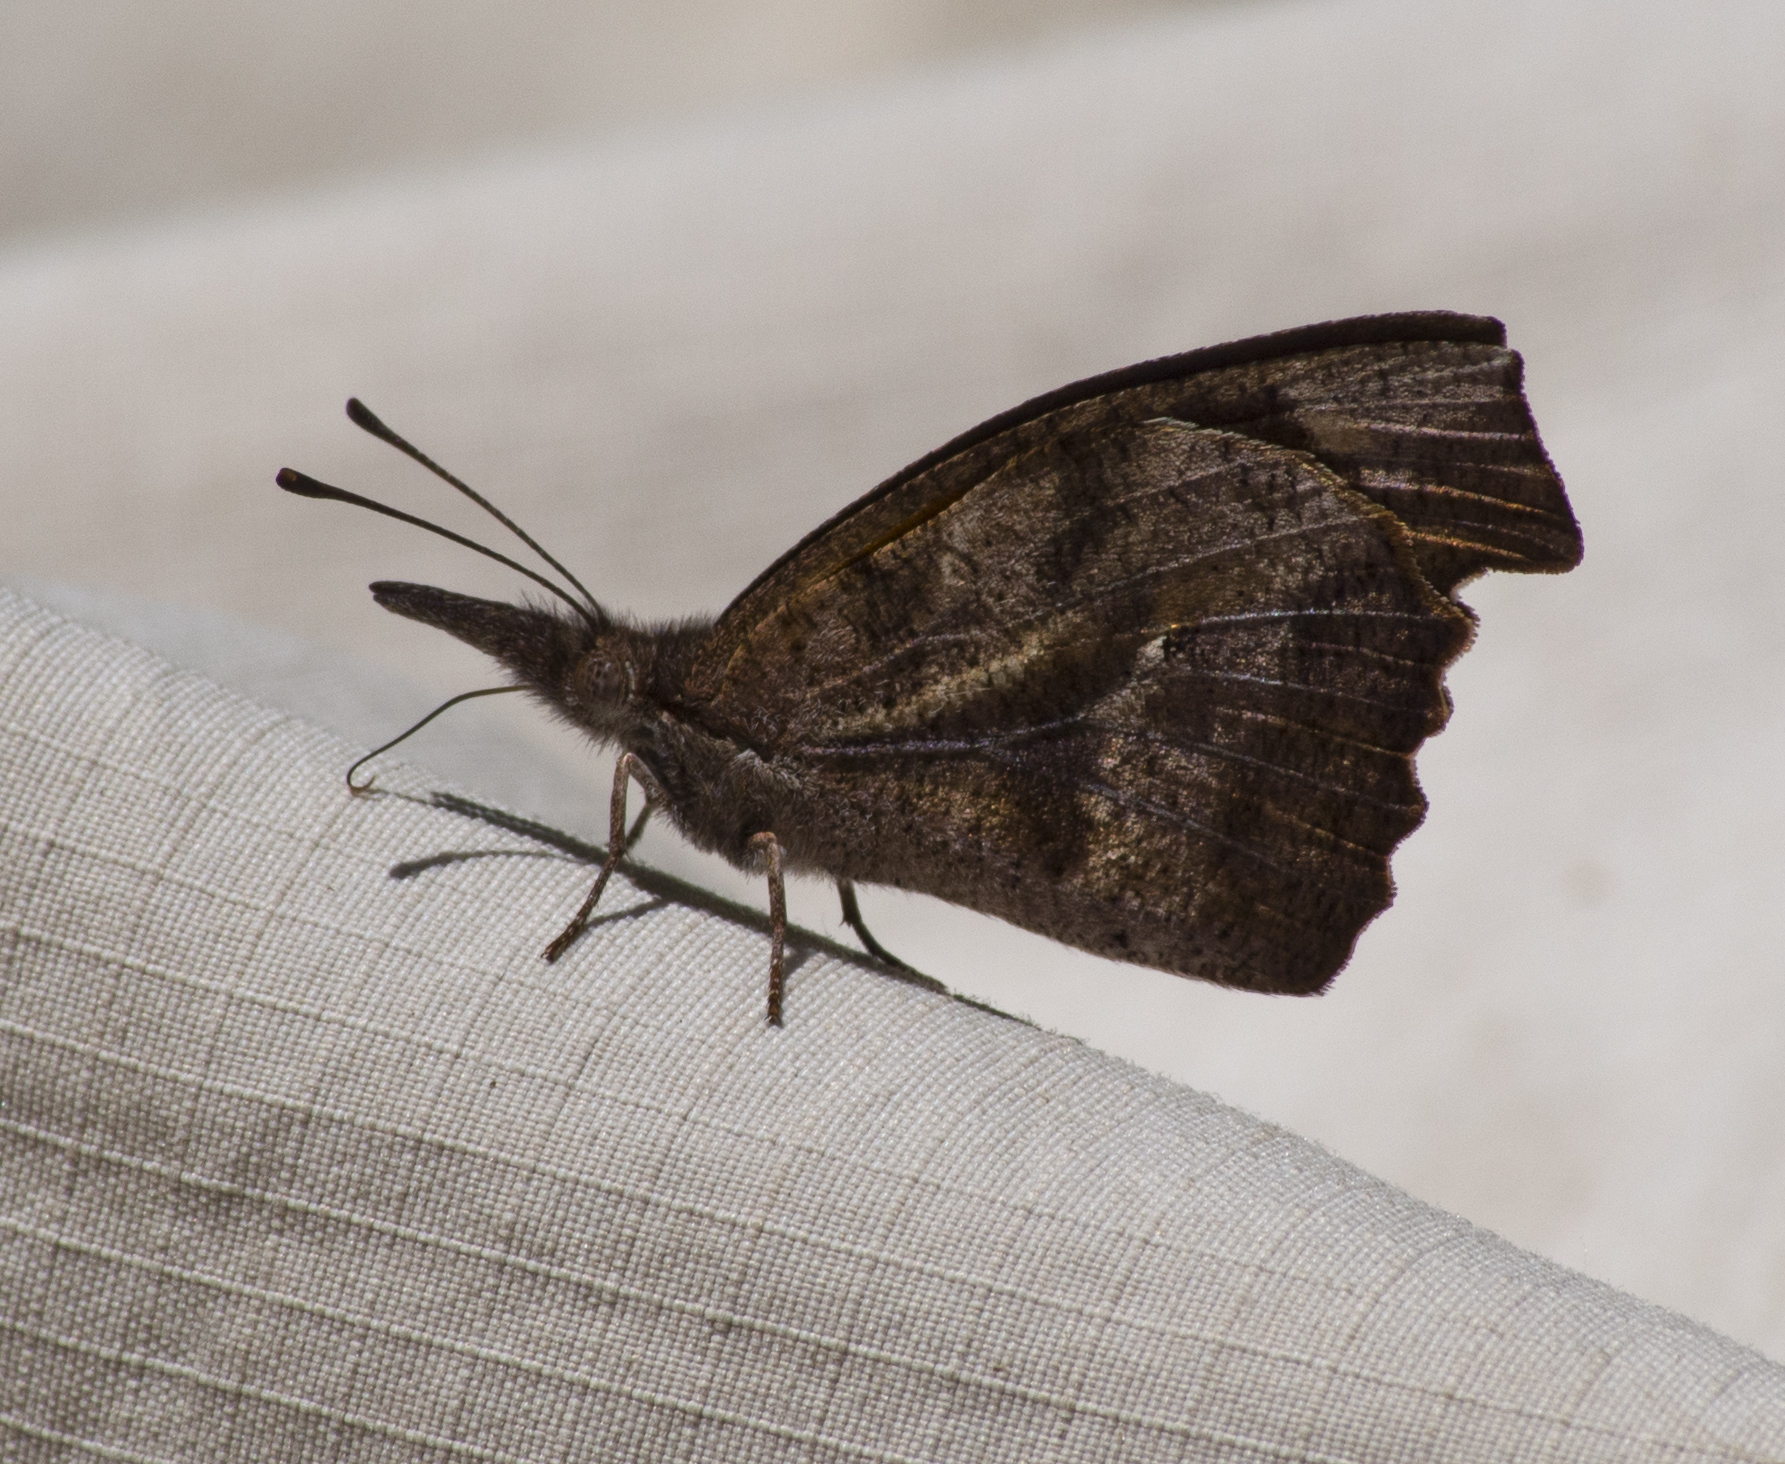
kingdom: Animalia
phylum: Arthropoda
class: Insecta
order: Lepidoptera
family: Nymphalidae
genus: Libytheana
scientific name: Libytheana carinenta
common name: American snout
